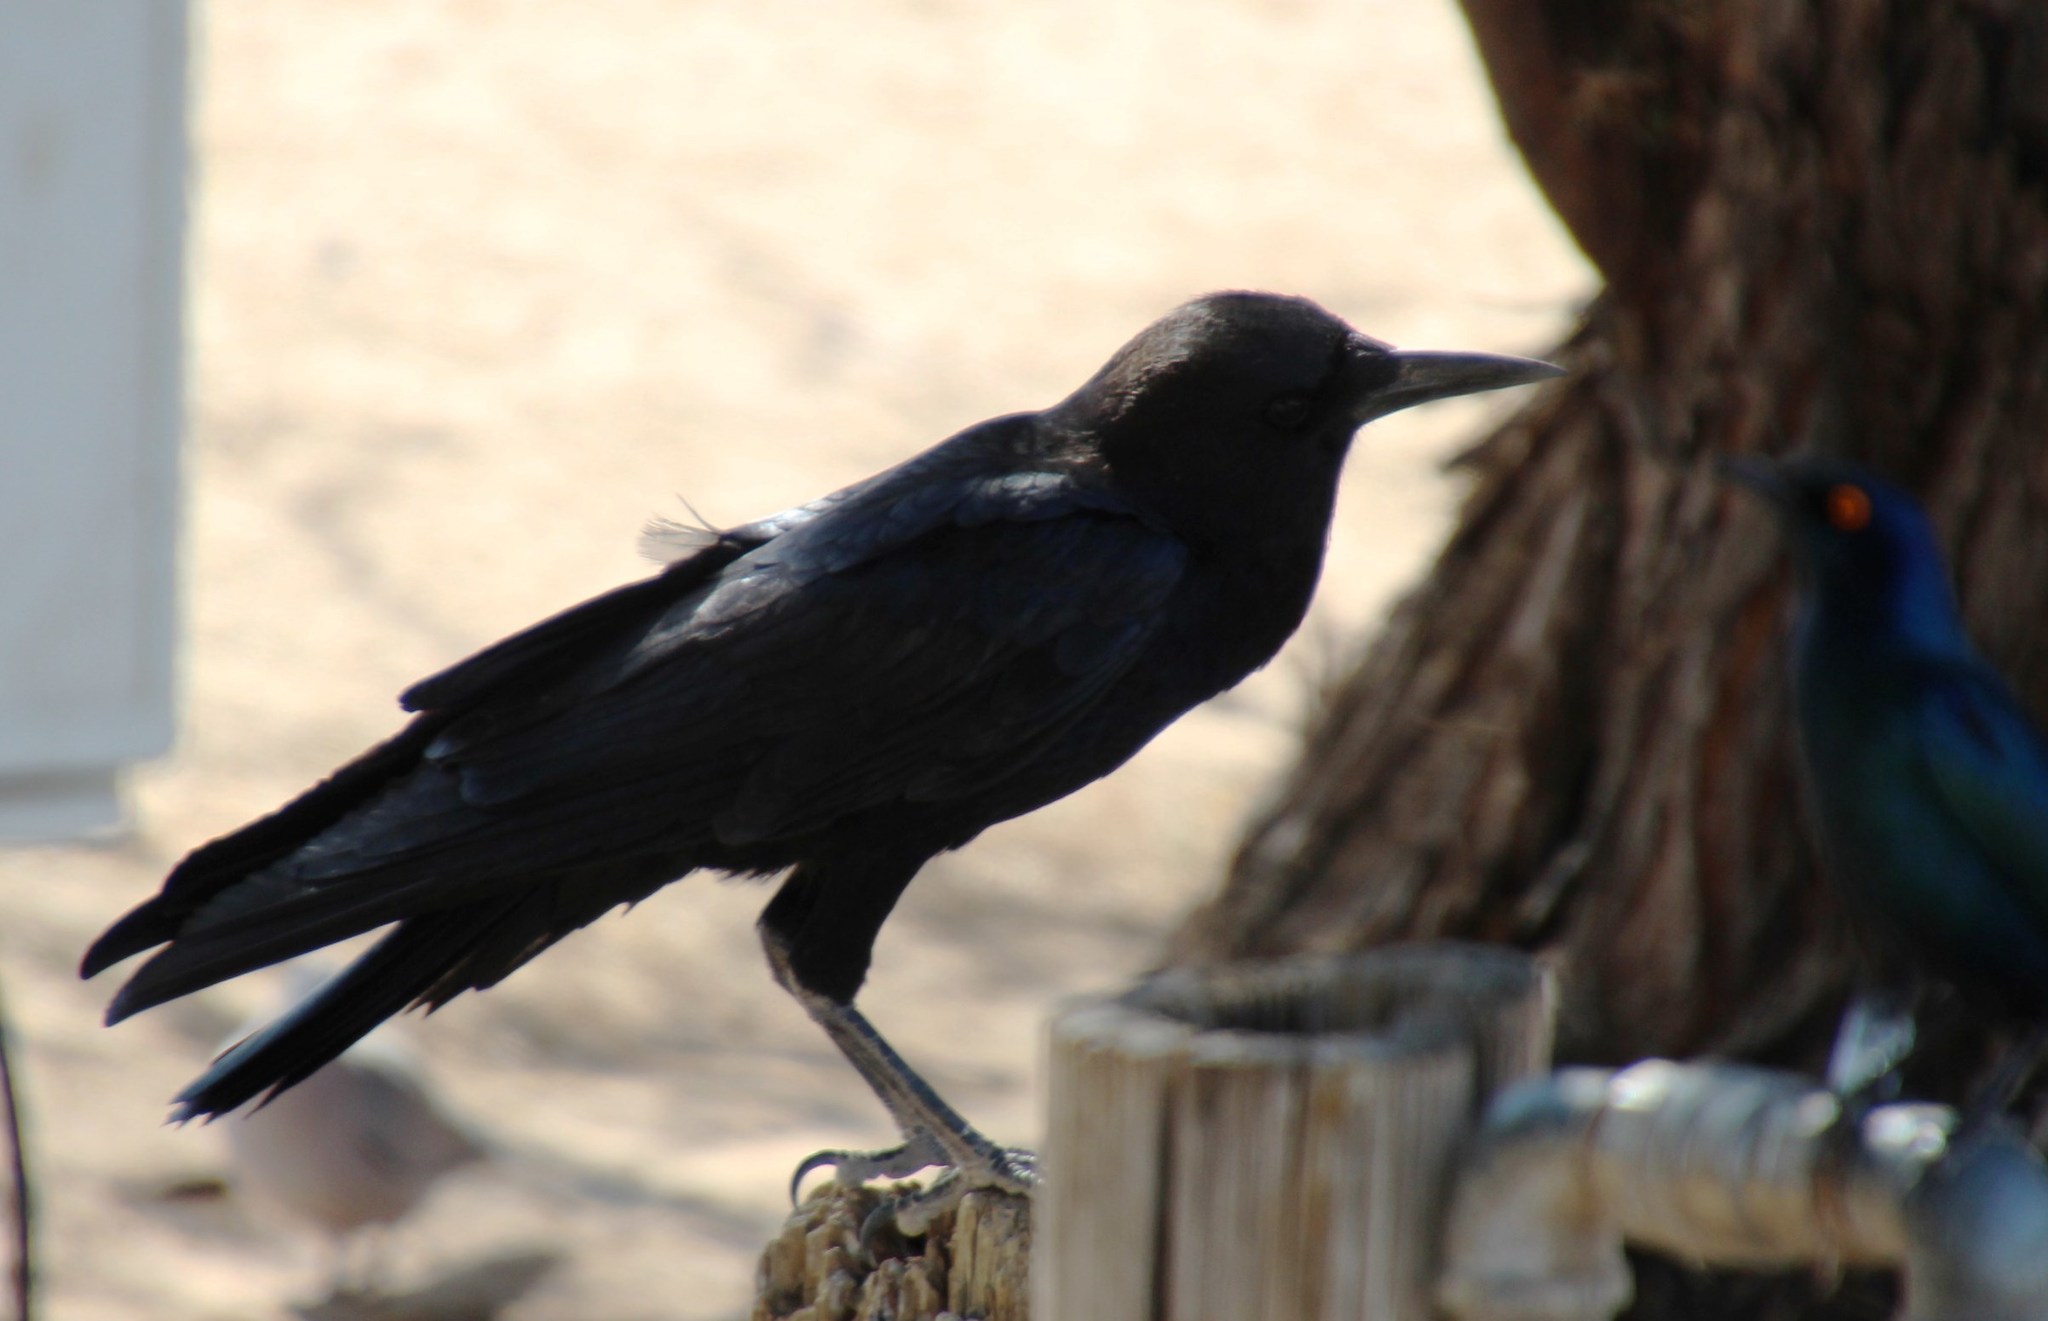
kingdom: Animalia
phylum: Chordata
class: Aves
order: Passeriformes
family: Corvidae
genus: Corvus
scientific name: Corvus capensis
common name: Cape crow
